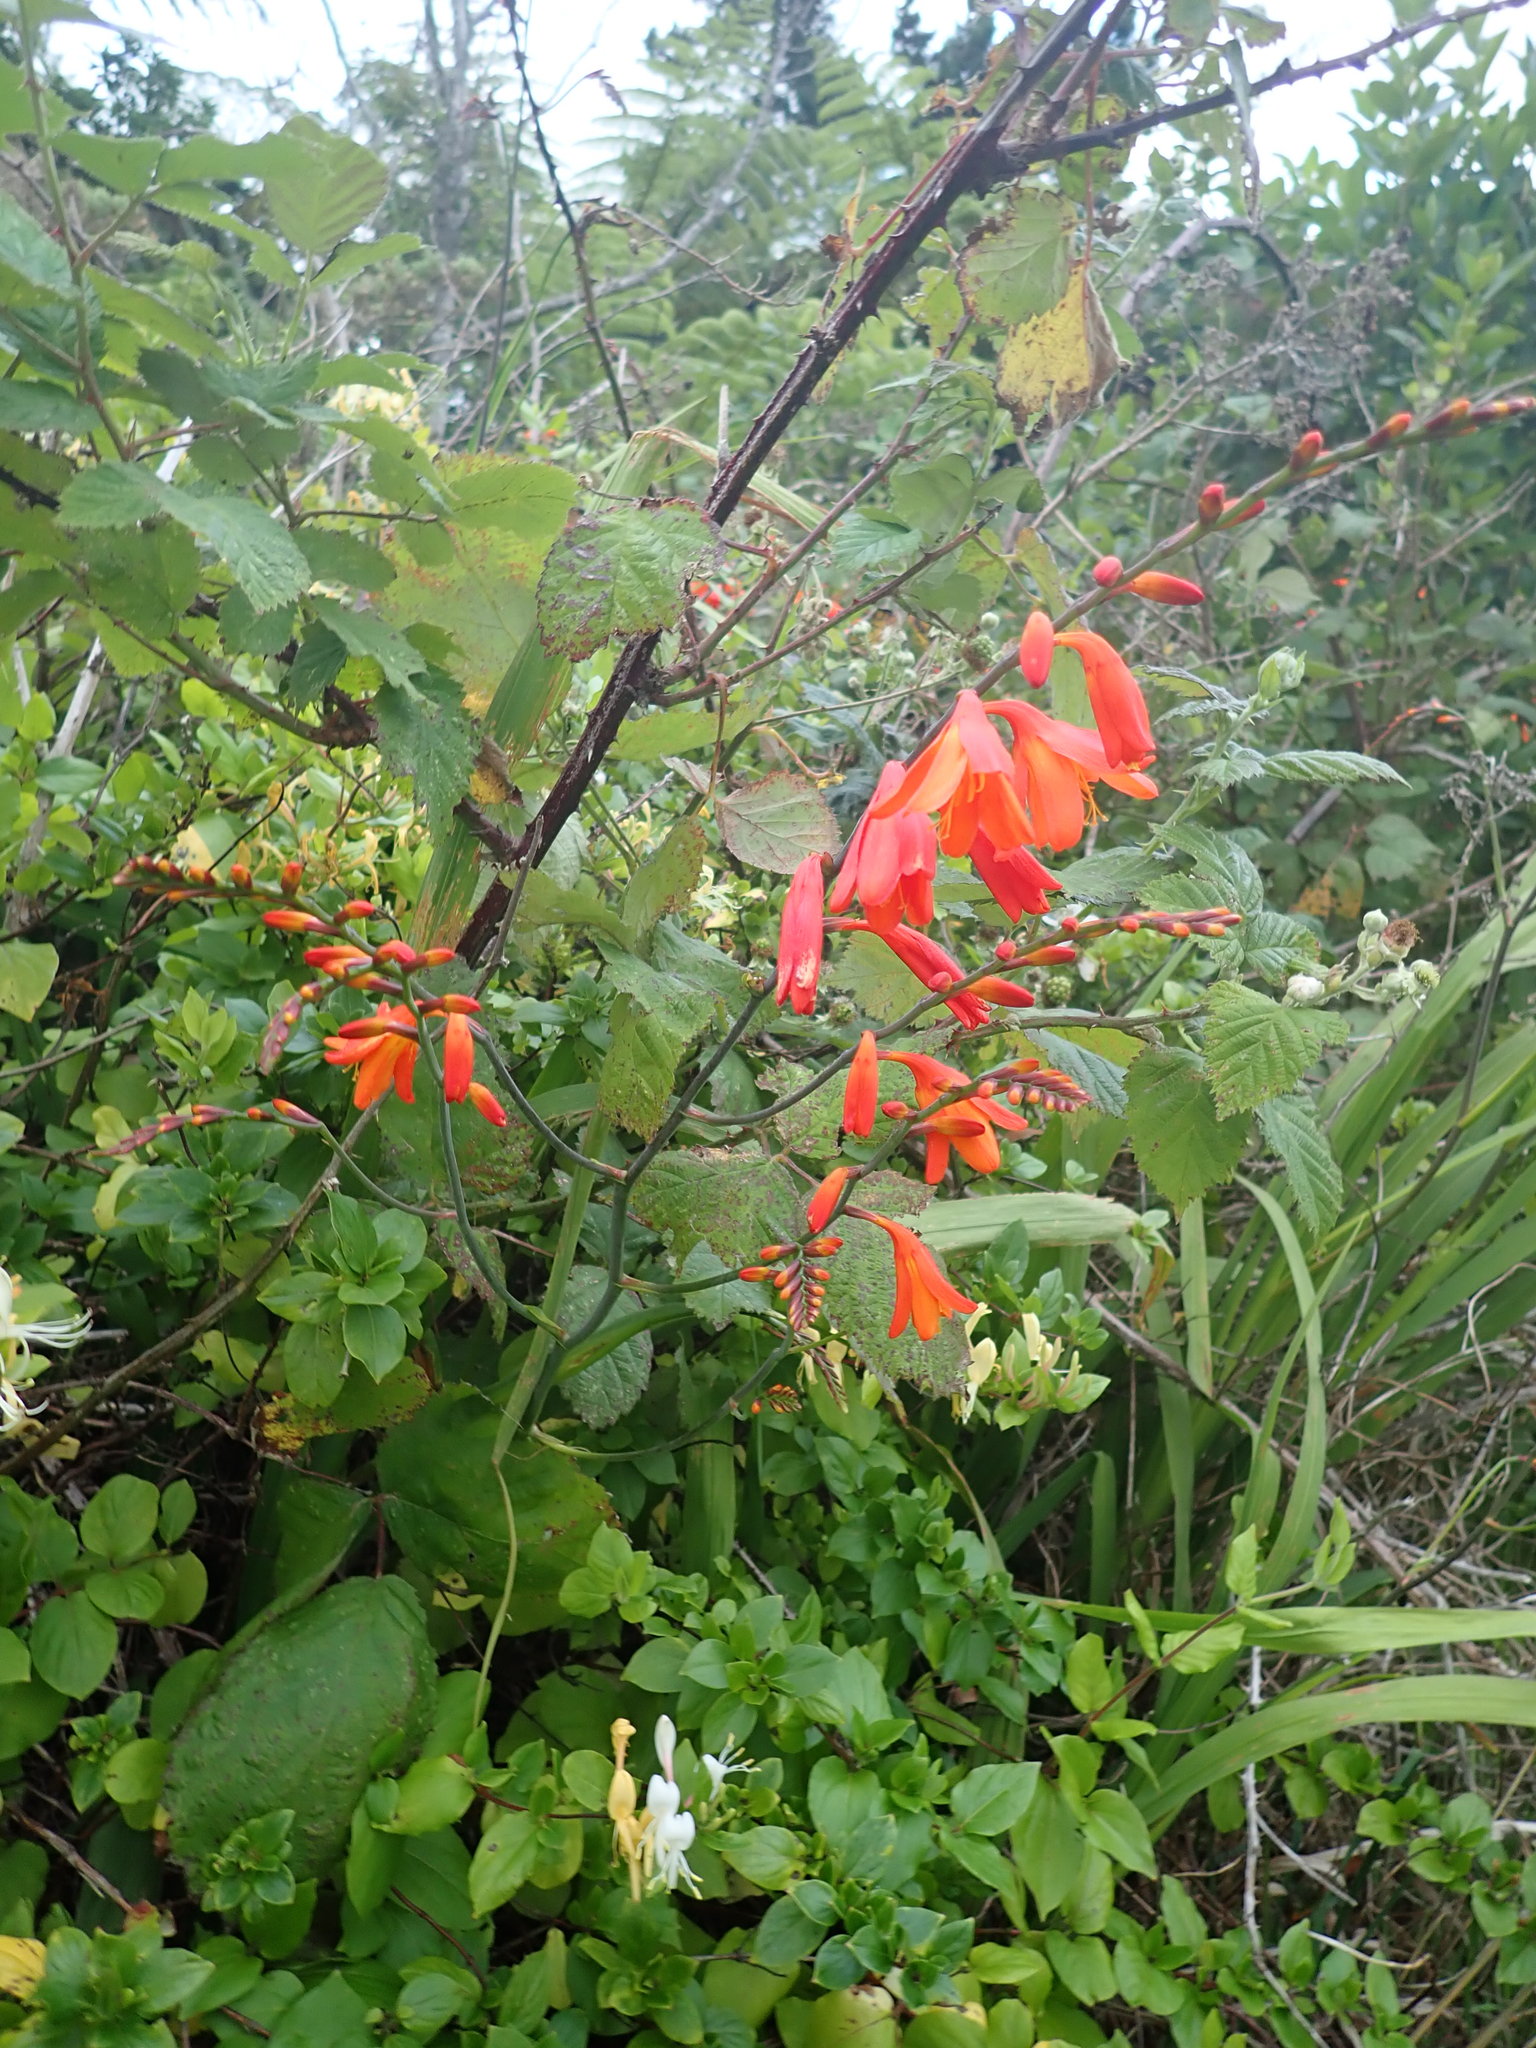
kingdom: Plantae
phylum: Tracheophyta
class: Liliopsida
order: Asparagales
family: Iridaceae
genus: Crocosmia
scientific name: Crocosmia crocosmiiflora
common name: Montbretia
